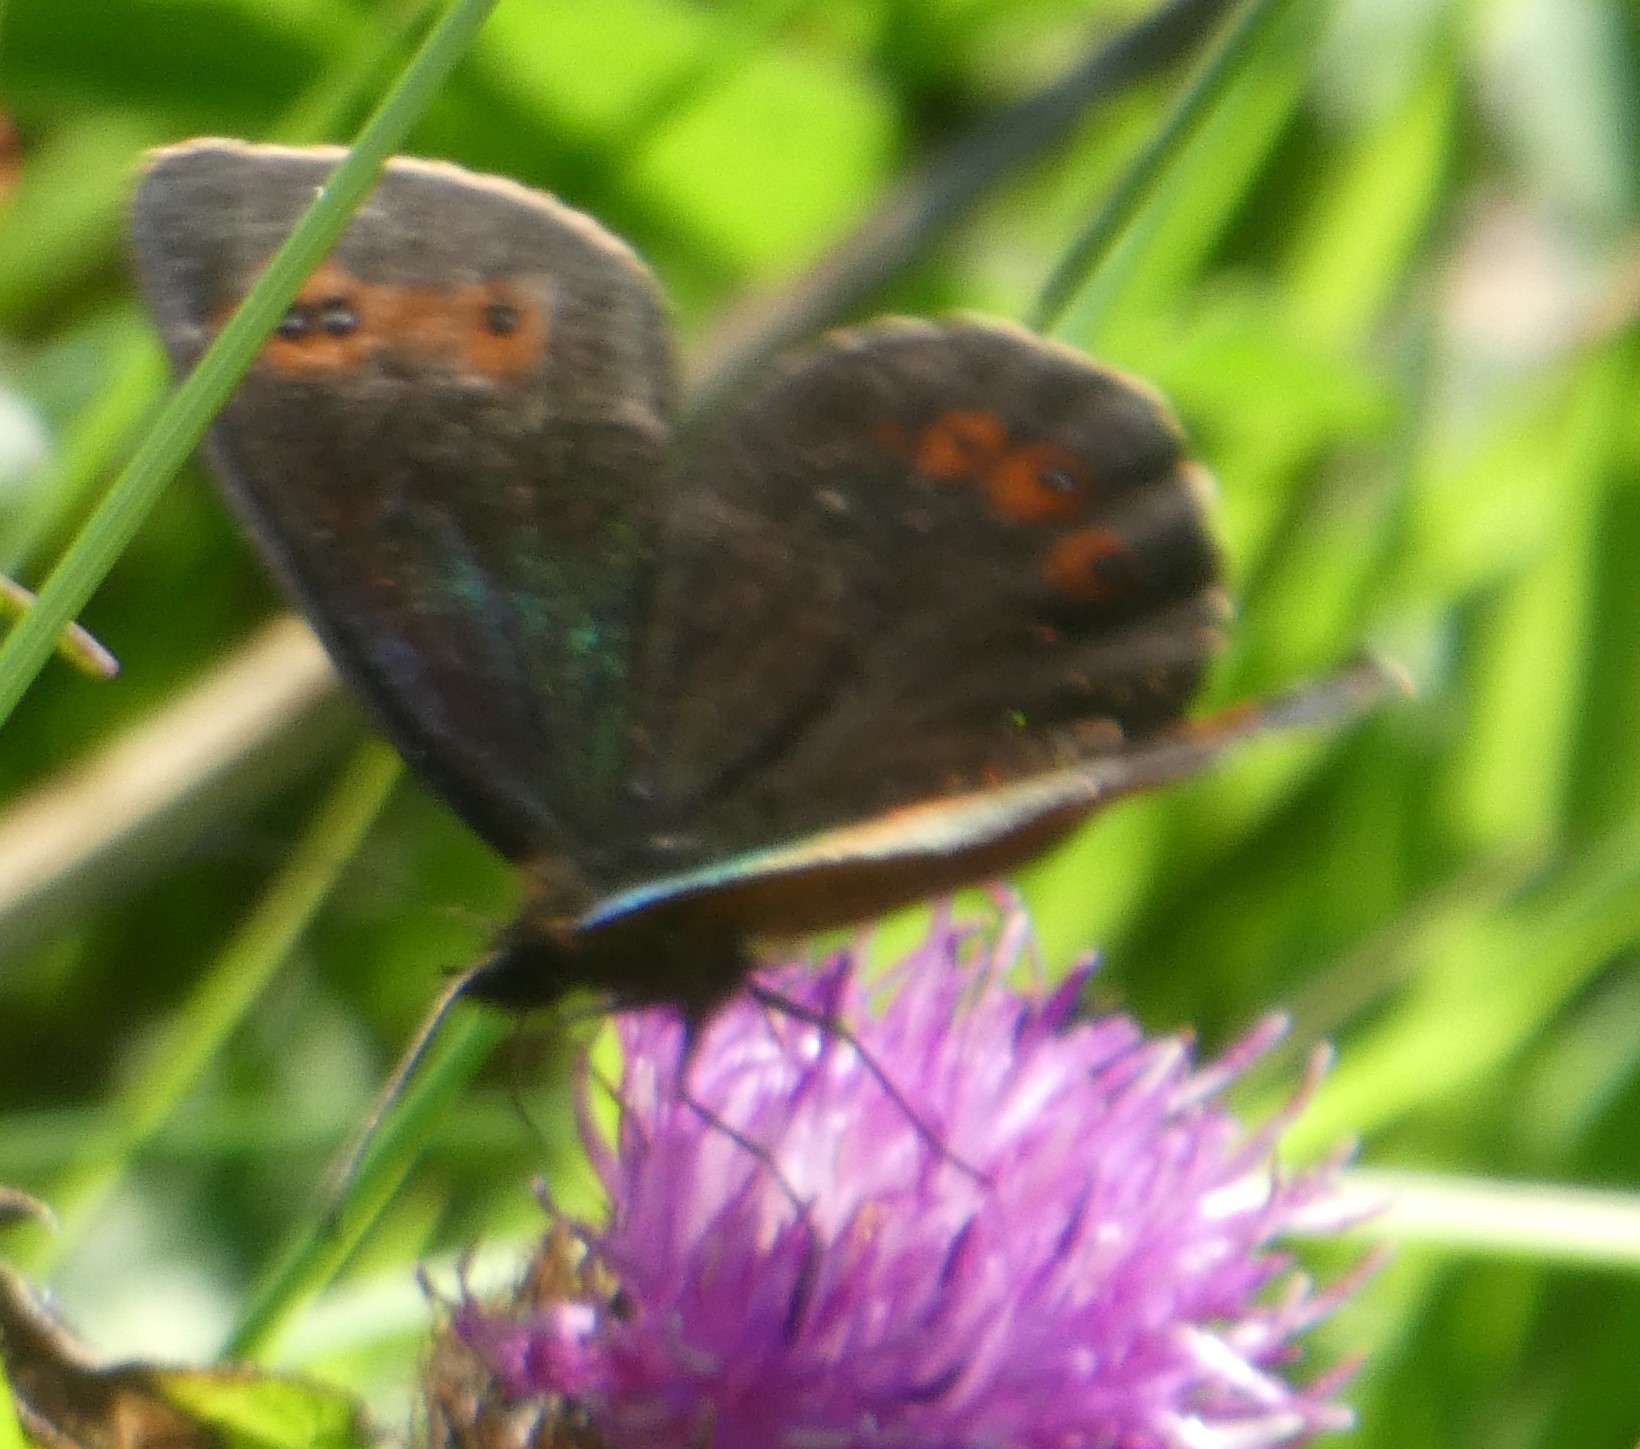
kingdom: Animalia
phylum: Arthropoda
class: Insecta
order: Lepidoptera
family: Nymphalidae
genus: Erebia
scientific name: Erebia aethiops
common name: Scotch argus
